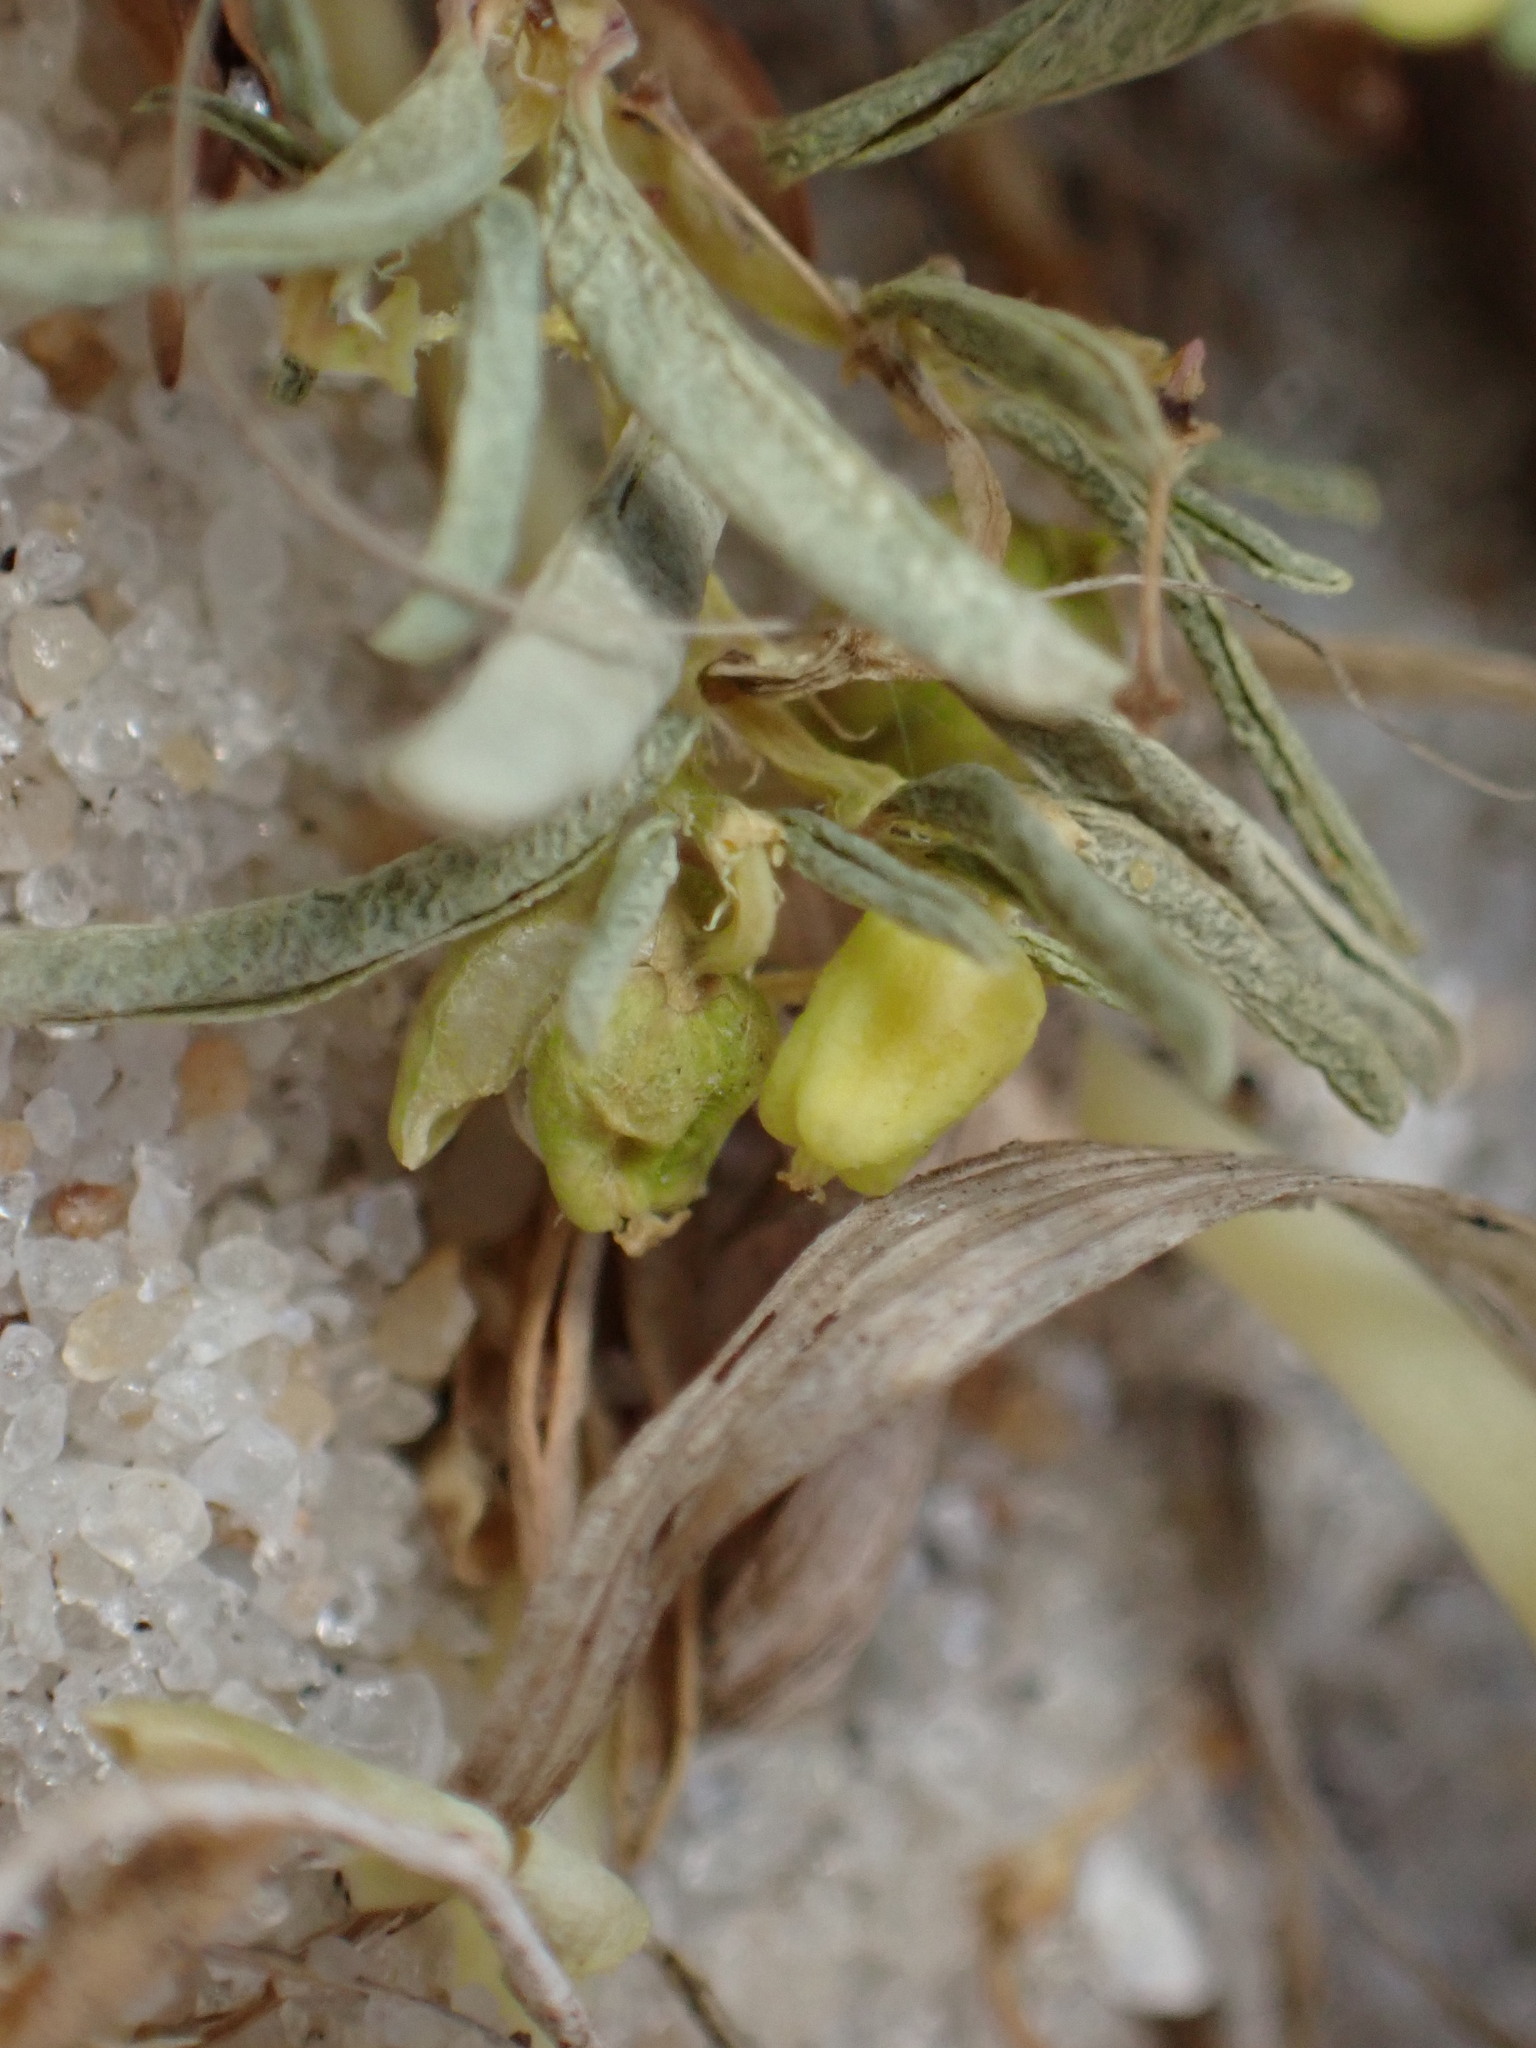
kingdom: Plantae
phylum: Tracheophyta
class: Magnoliopsida
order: Malpighiales
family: Euphorbiaceae
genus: Euphorbia
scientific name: Euphorbia polygonifolia
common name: Knotweed spurge
